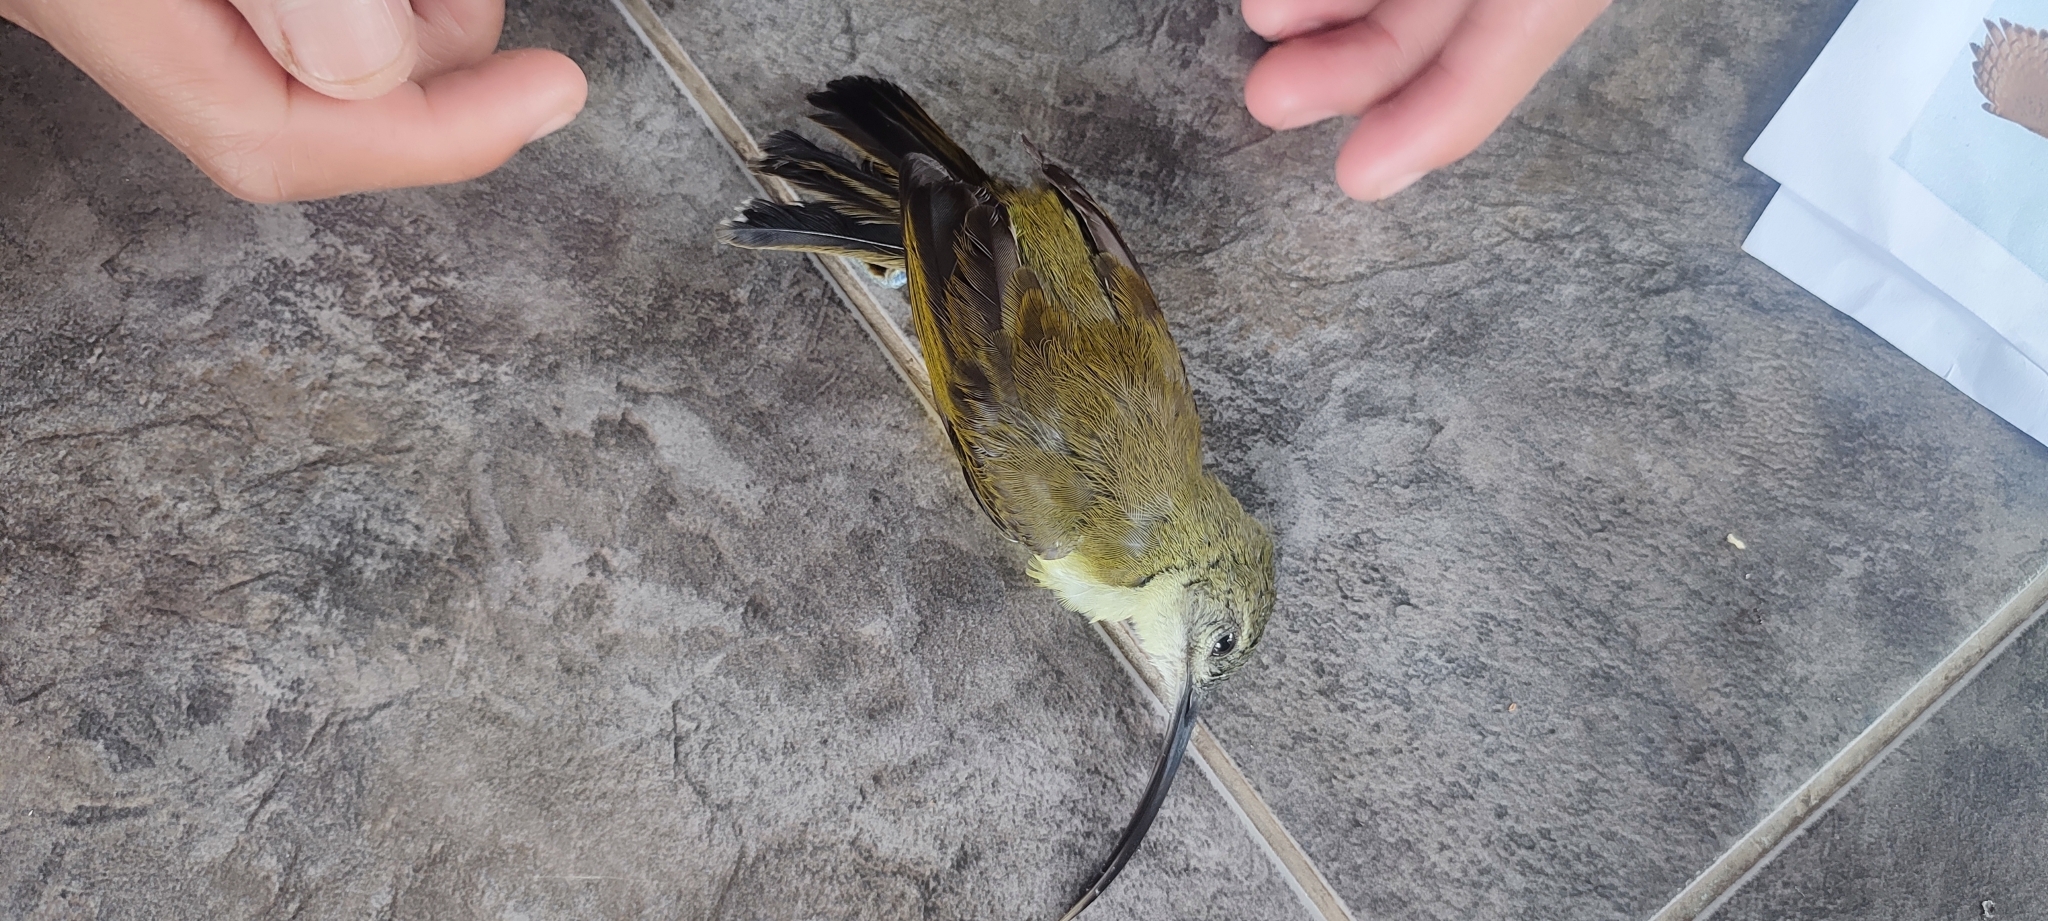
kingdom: Animalia
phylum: Chordata
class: Aves
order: Passeriformes
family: Nectariniidae
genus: Arachnothera
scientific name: Arachnothera longirostra
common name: Little spiderhunter
